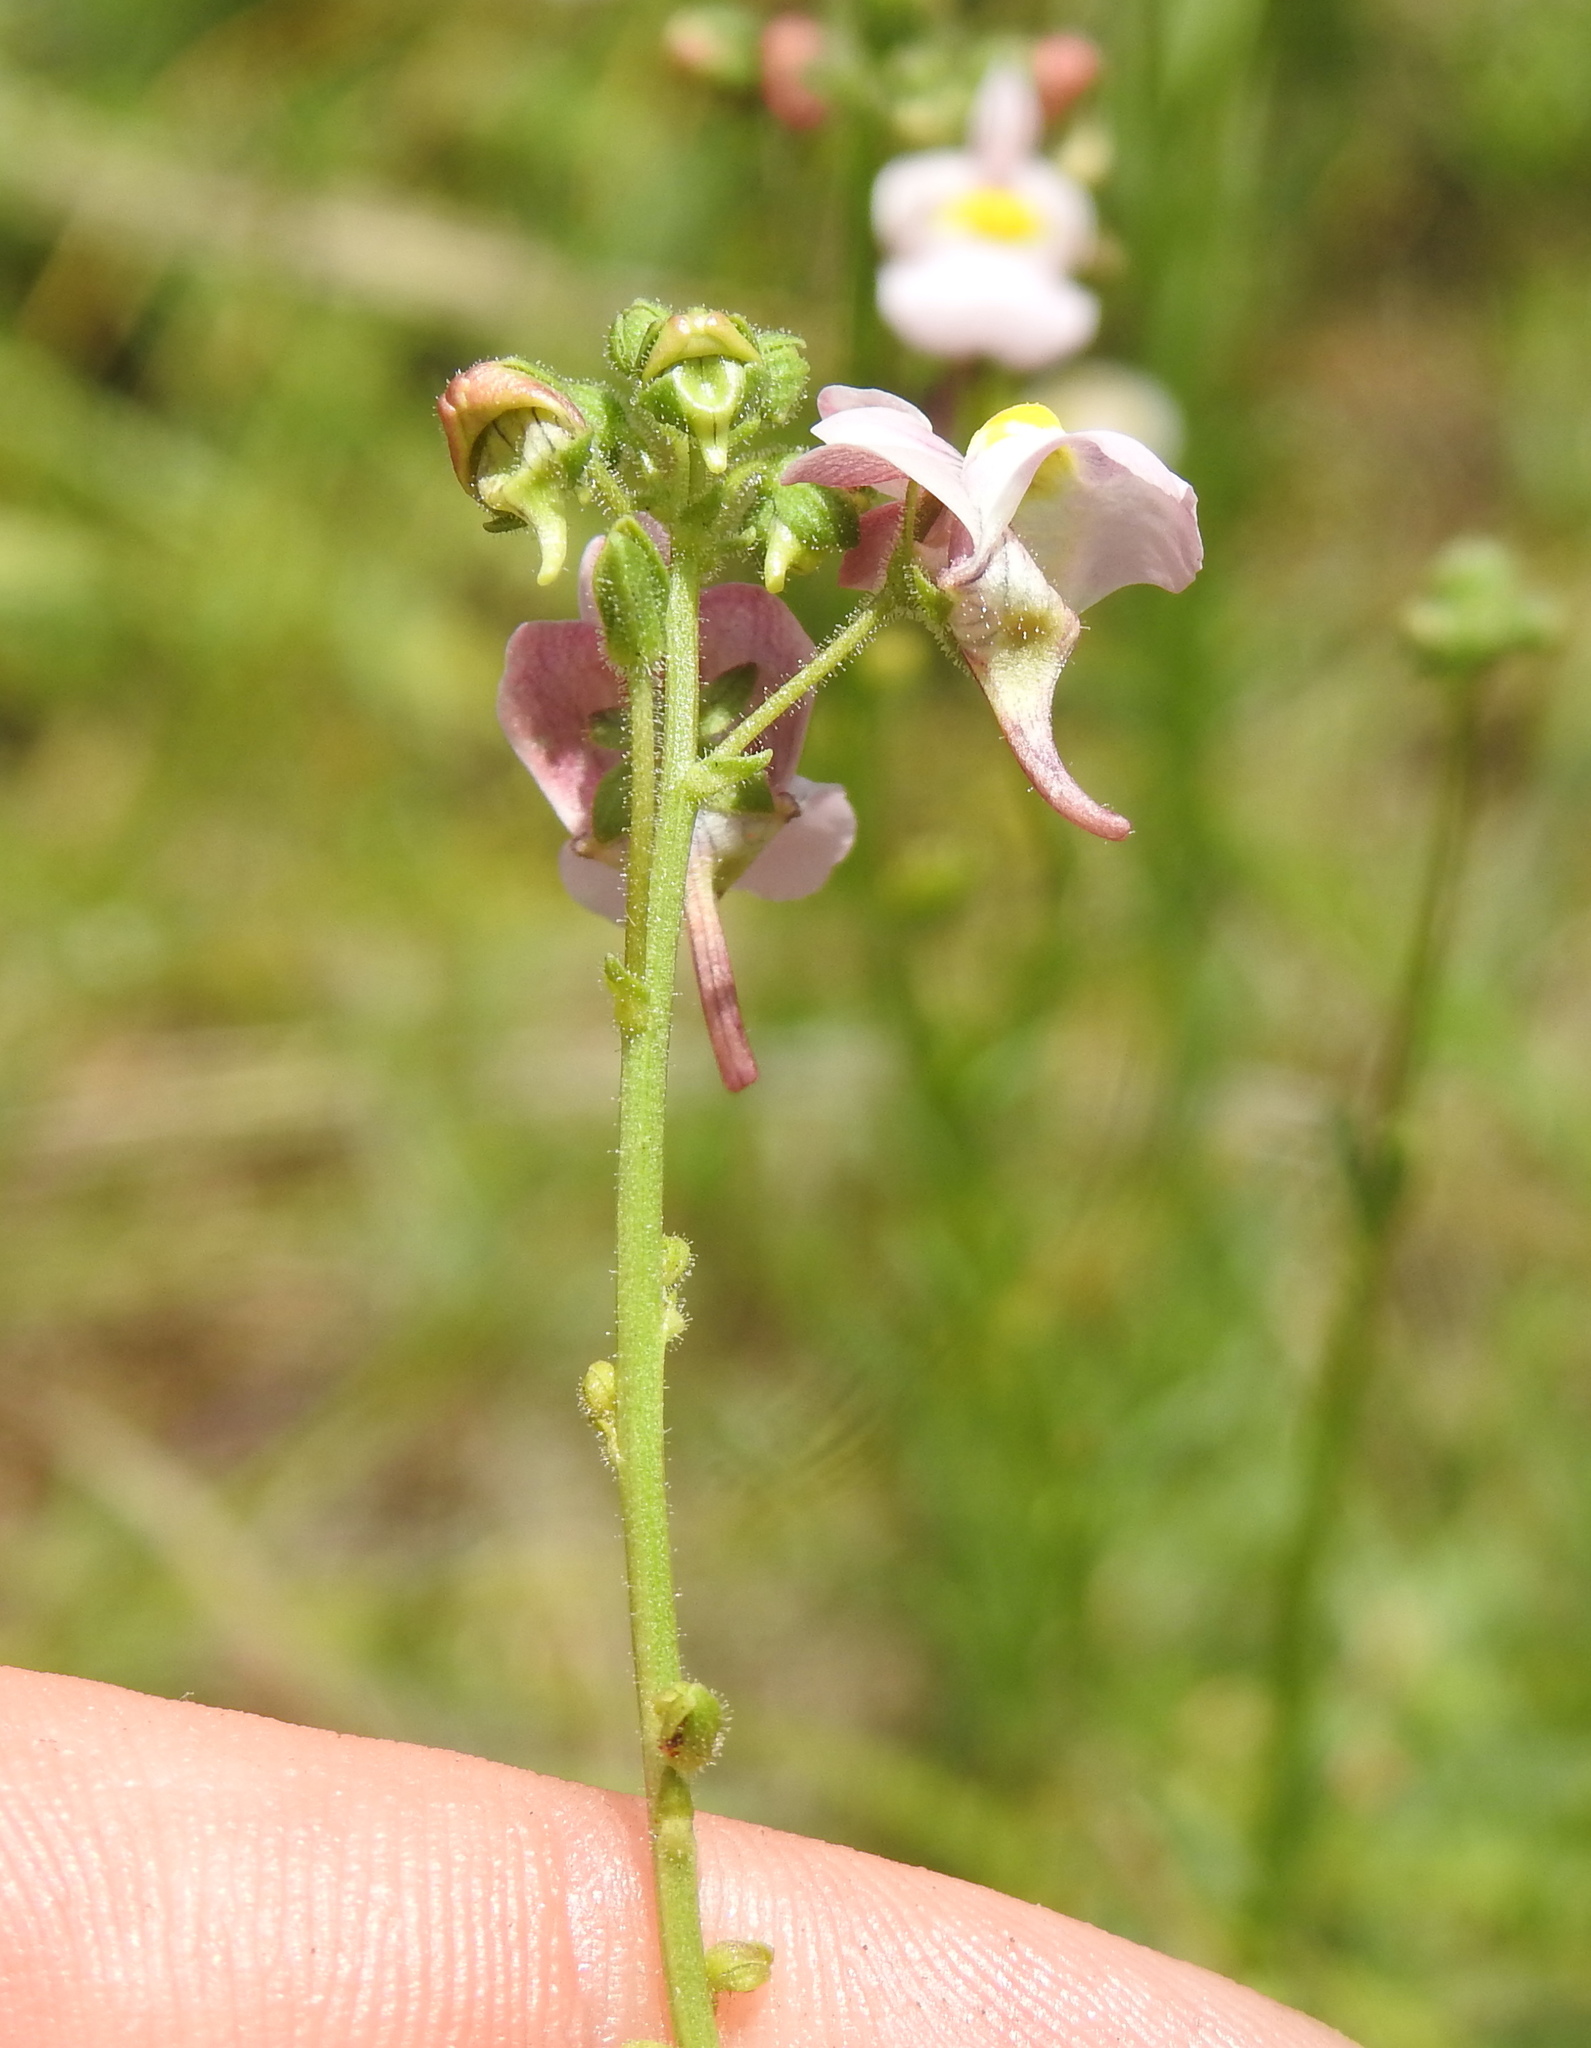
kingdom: Plantae
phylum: Tracheophyta
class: Magnoliopsida
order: Lamiales
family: Scrophulariaceae
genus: Nemesia
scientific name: Nemesia fruticans
